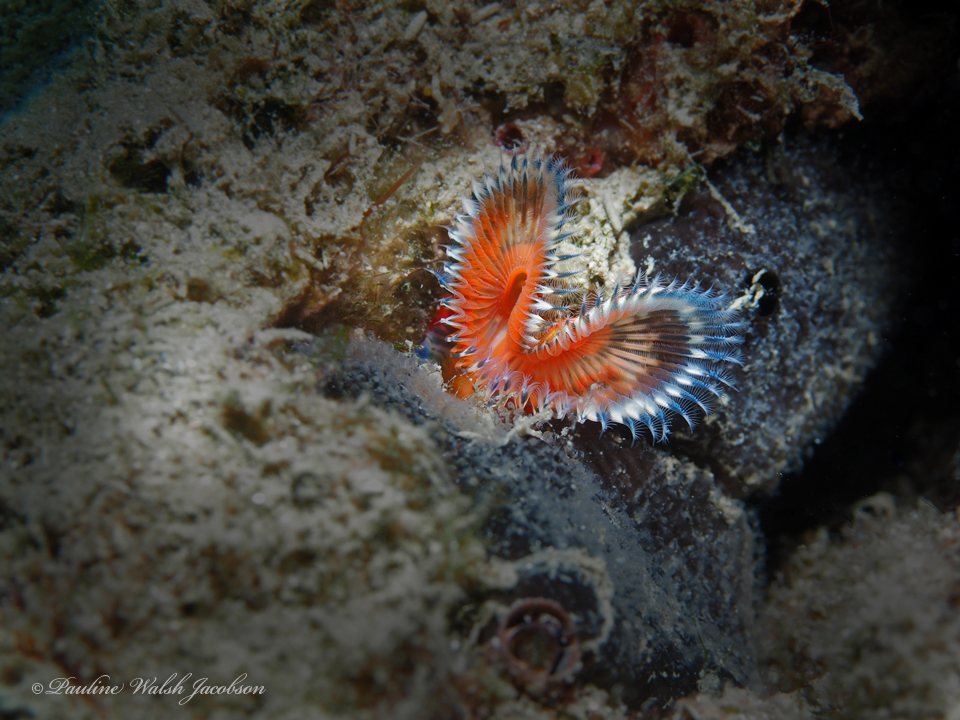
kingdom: Animalia
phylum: Annelida
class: Polychaeta
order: Sabellida
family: Serpulidae
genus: Pomatostegus
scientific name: Pomatostegus stellatus
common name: Star tubeworm
